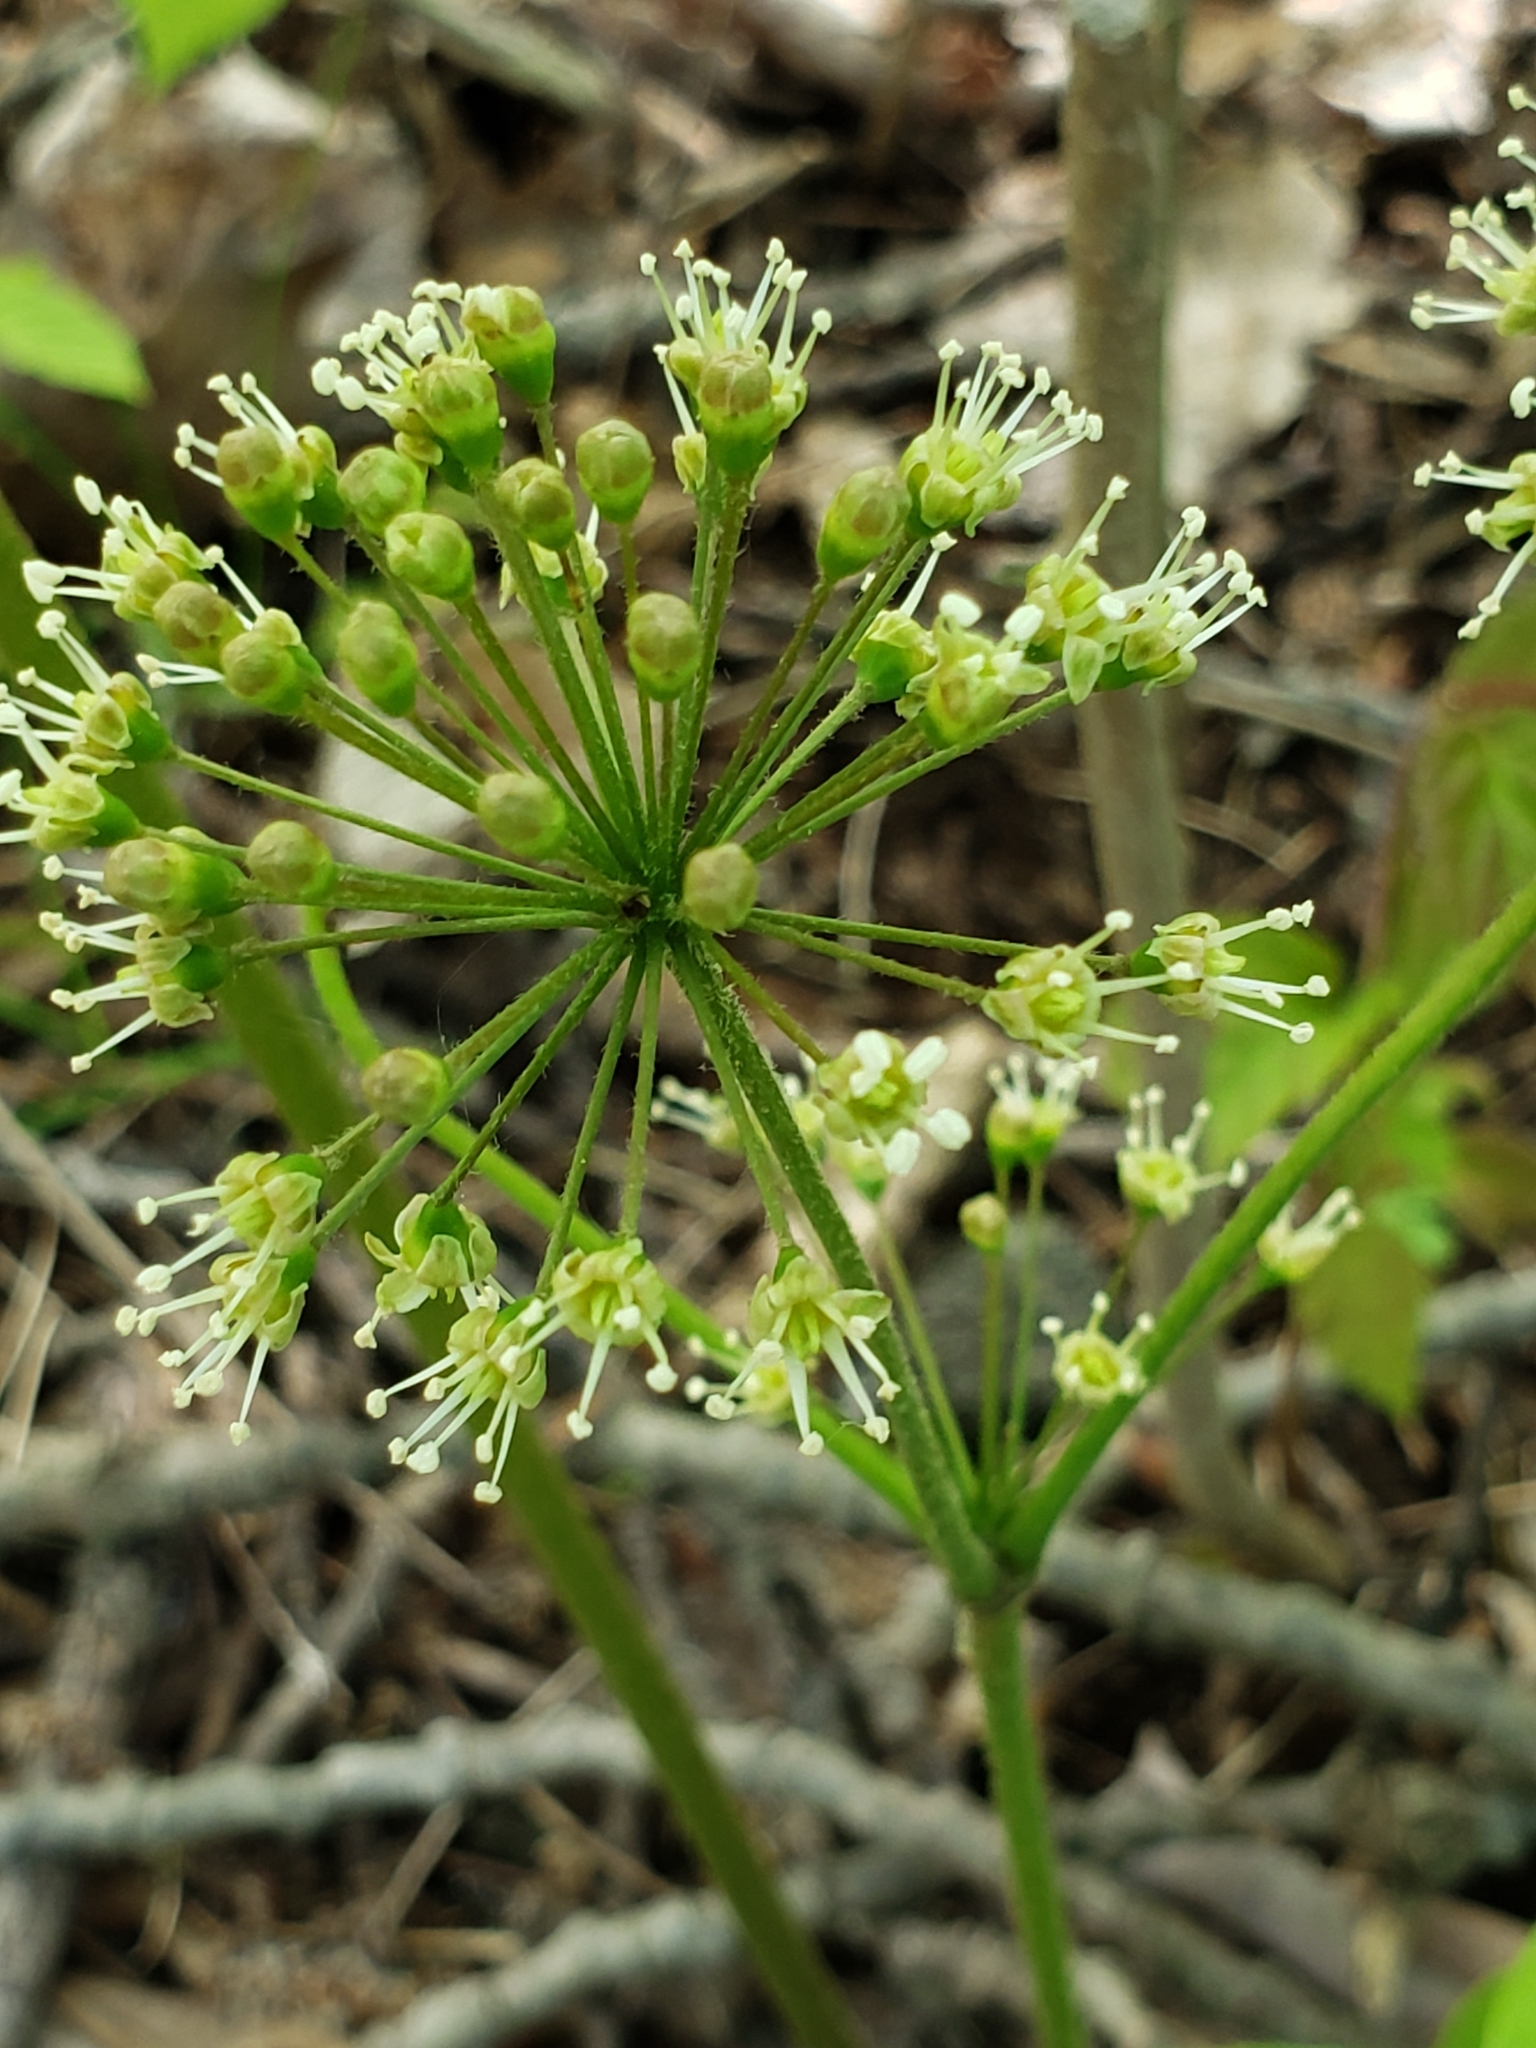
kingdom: Plantae
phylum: Tracheophyta
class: Magnoliopsida
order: Apiales
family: Araliaceae
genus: Aralia
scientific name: Aralia nudicaulis
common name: Wild sarsaparilla
